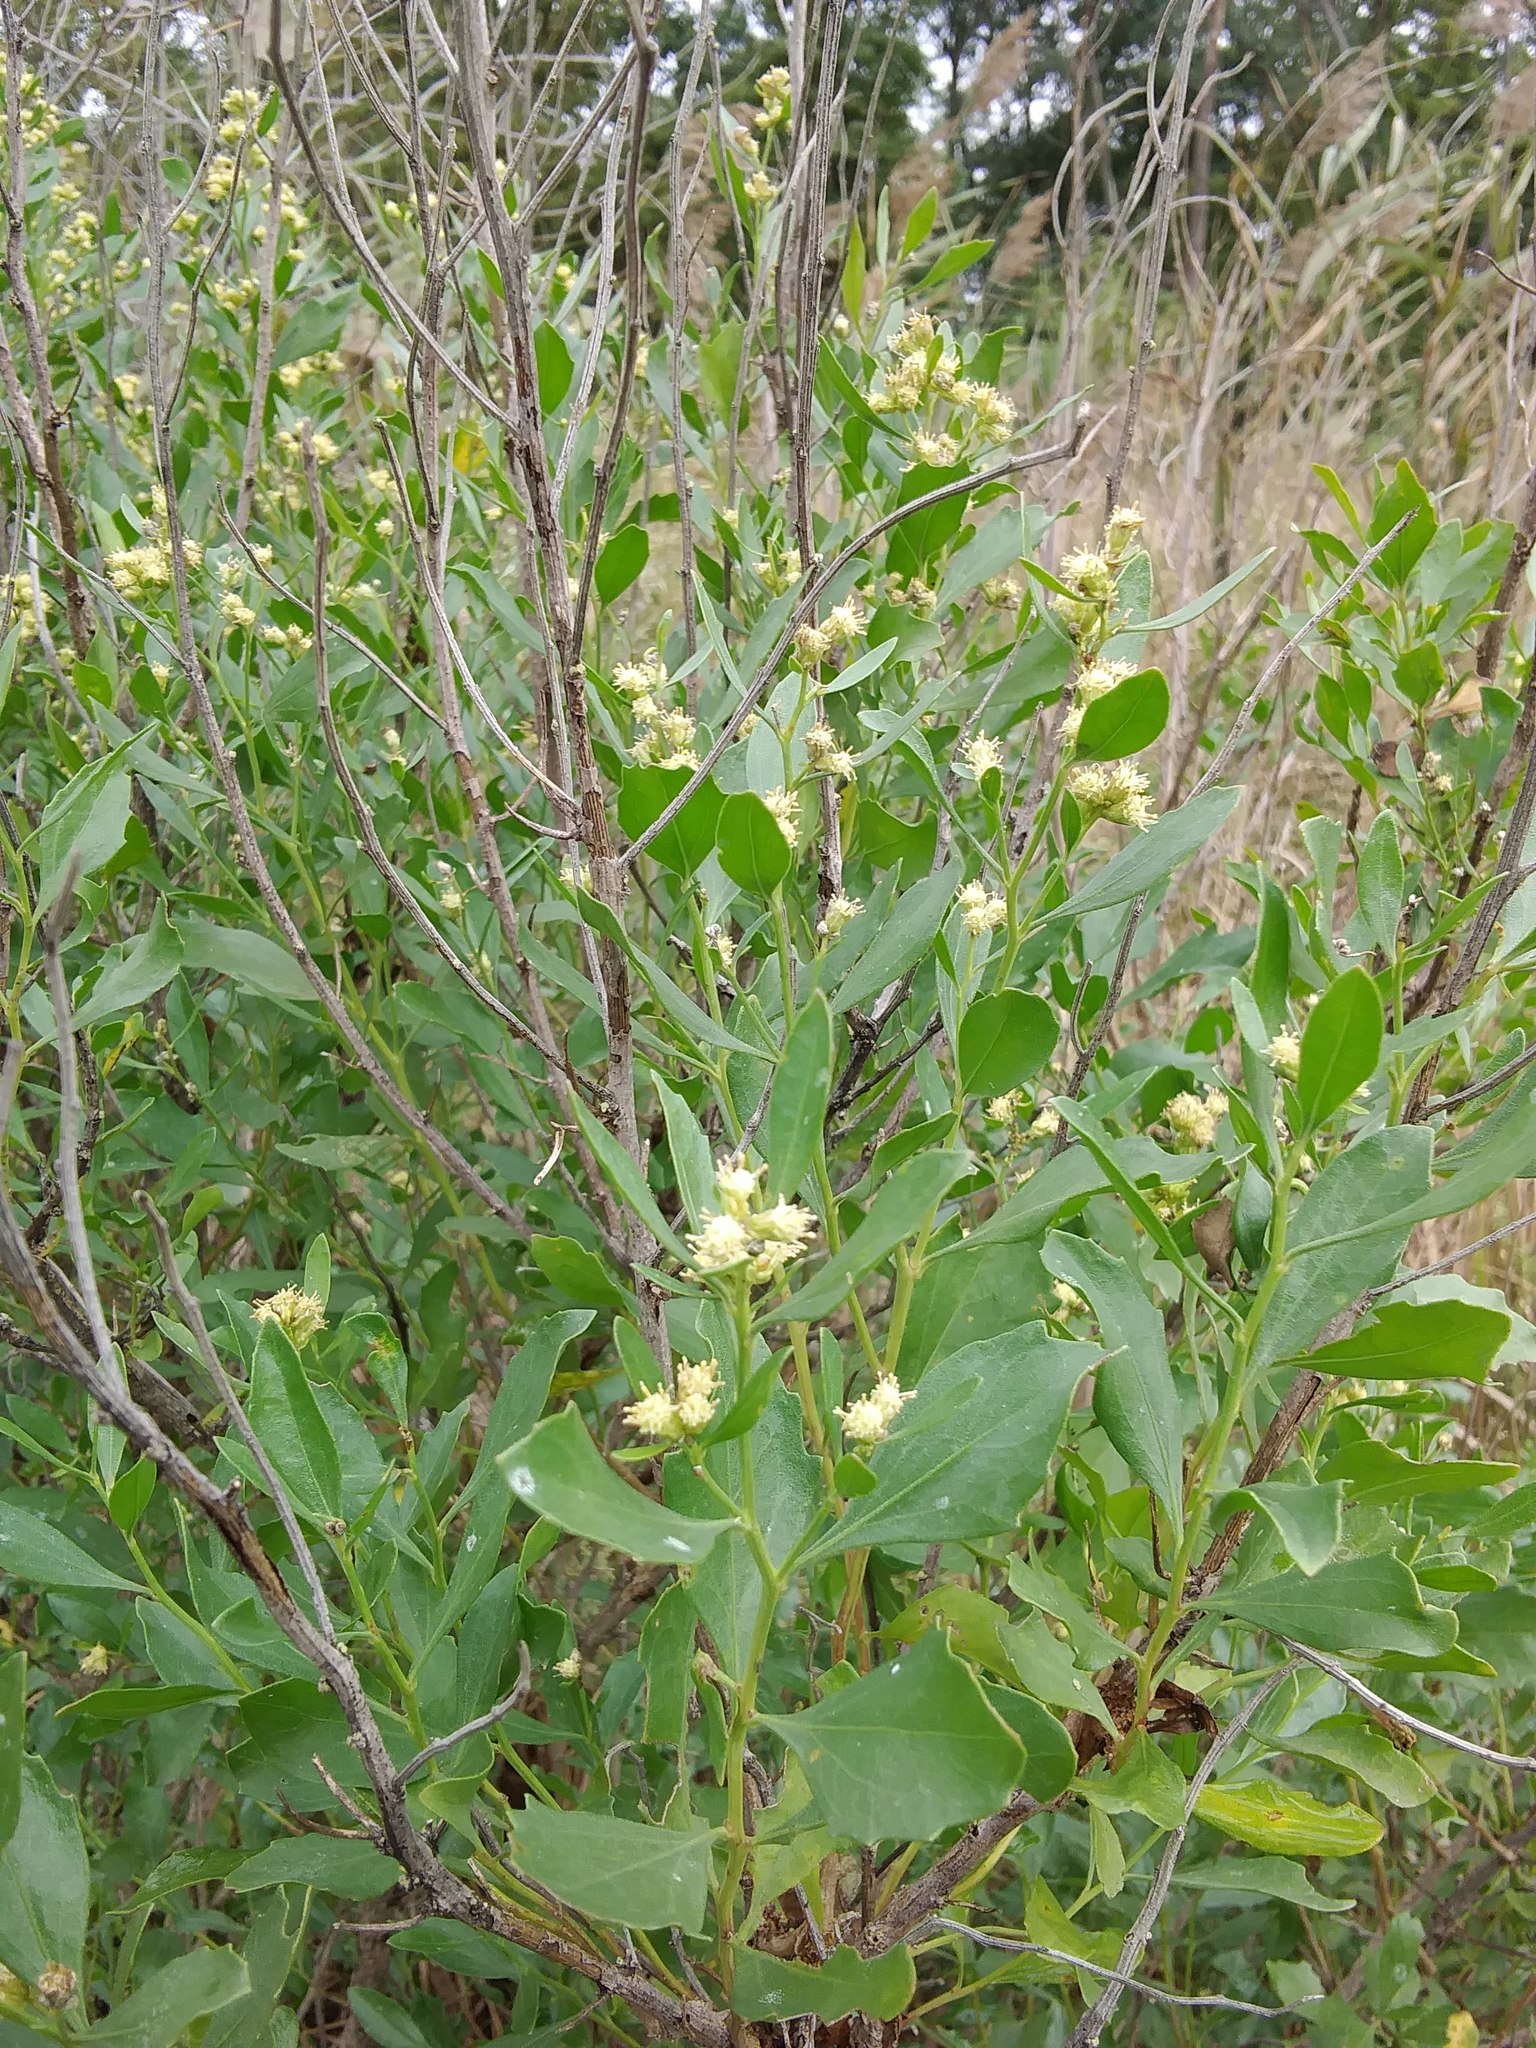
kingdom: Plantae
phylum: Tracheophyta
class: Magnoliopsida
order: Asterales
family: Asteraceae
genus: Baccharis
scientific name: Baccharis halimifolia
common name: Eastern baccharis
